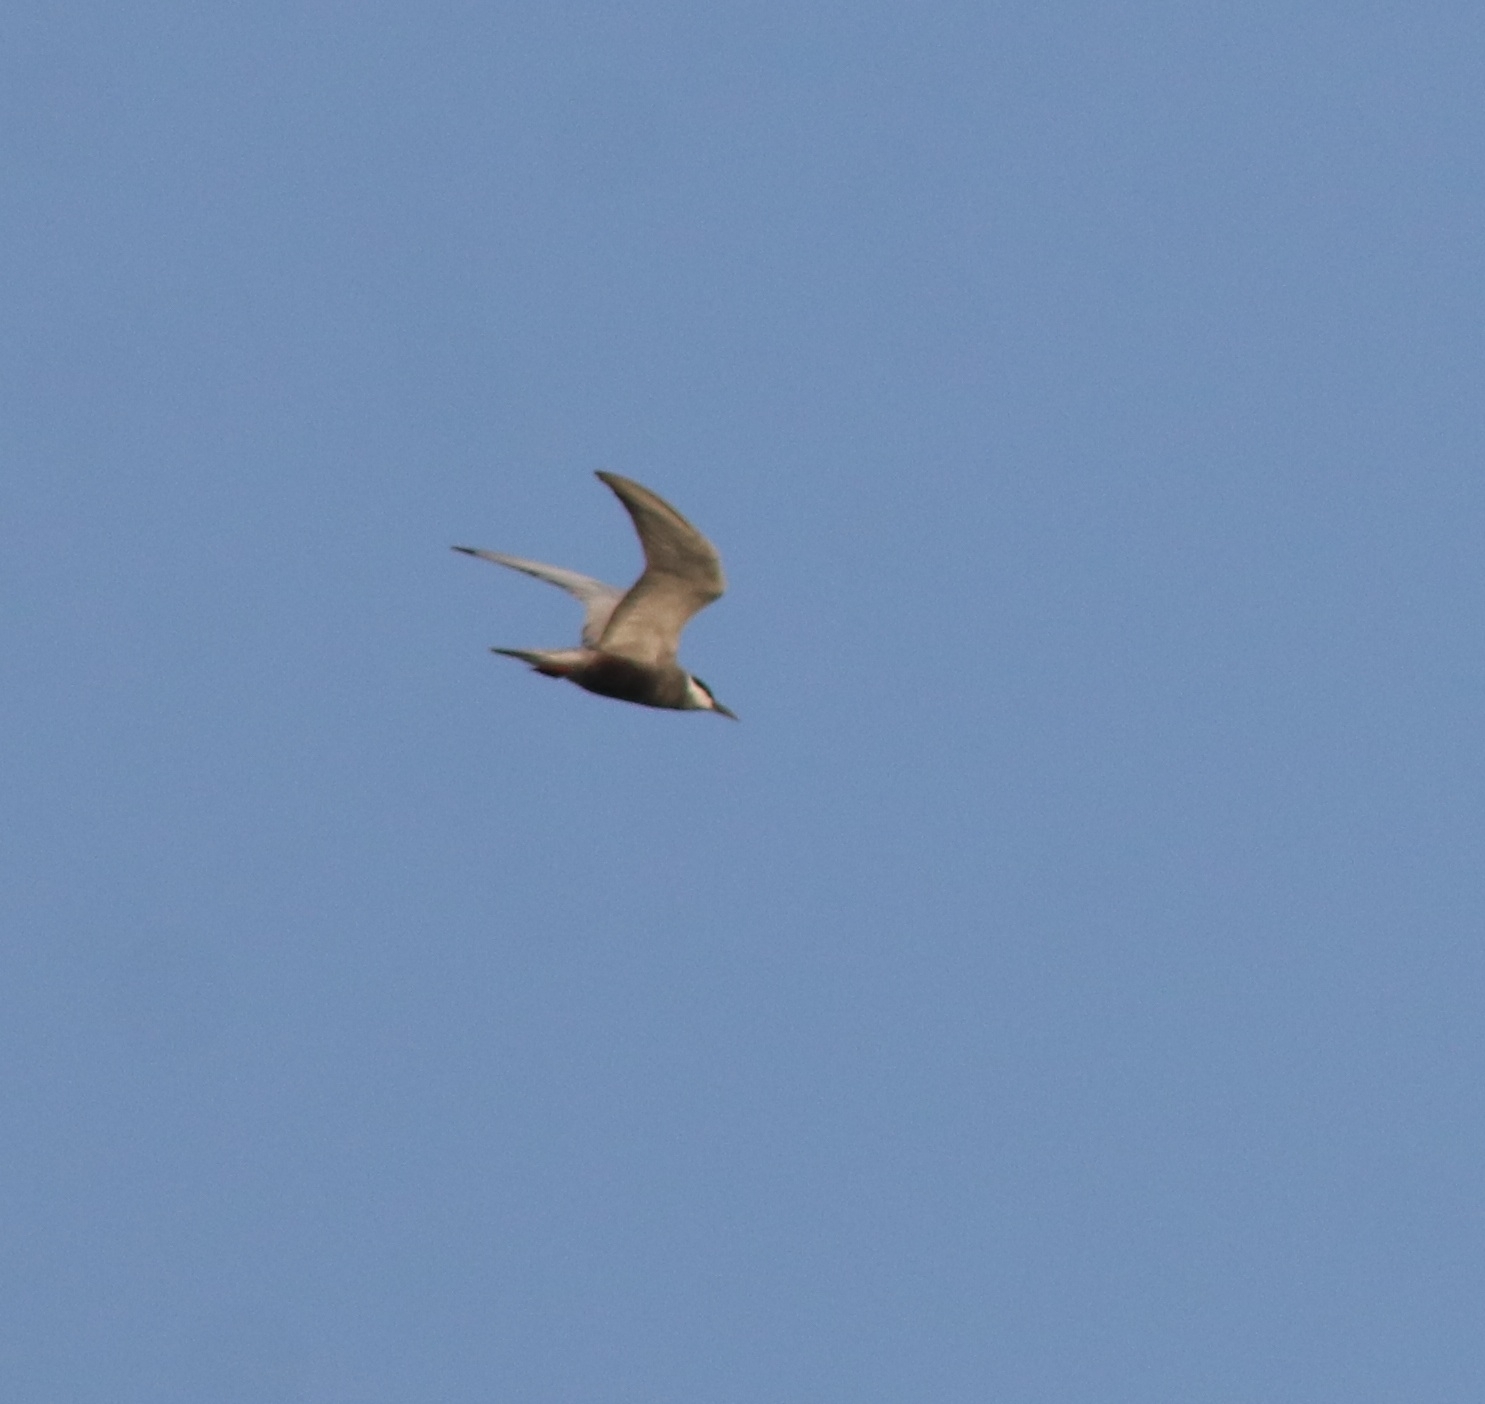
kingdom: Animalia
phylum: Chordata
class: Aves
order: Charadriiformes
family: Laridae
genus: Chlidonias
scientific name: Chlidonias hybrida
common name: Whiskered tern
